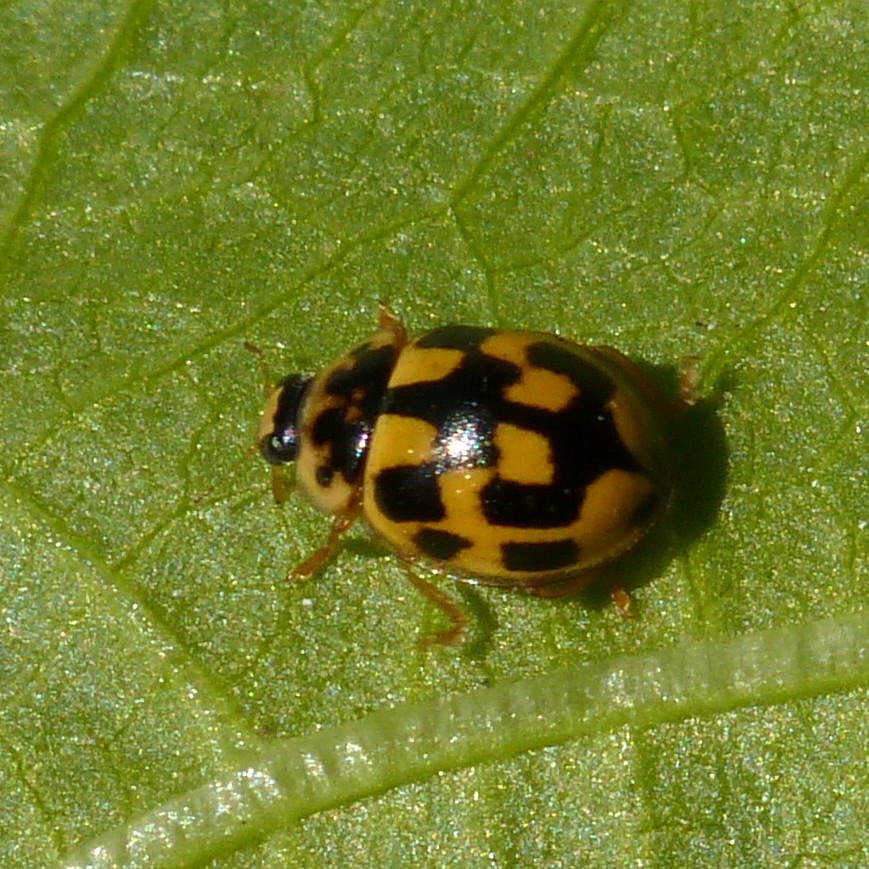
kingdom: Animalia
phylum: Arthropoda
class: Insecta
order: Coleoptera
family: Coccinellidae
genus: Propylaea
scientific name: Propylaea quatuordecimpunctata
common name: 14-spotted ladybird beetle
